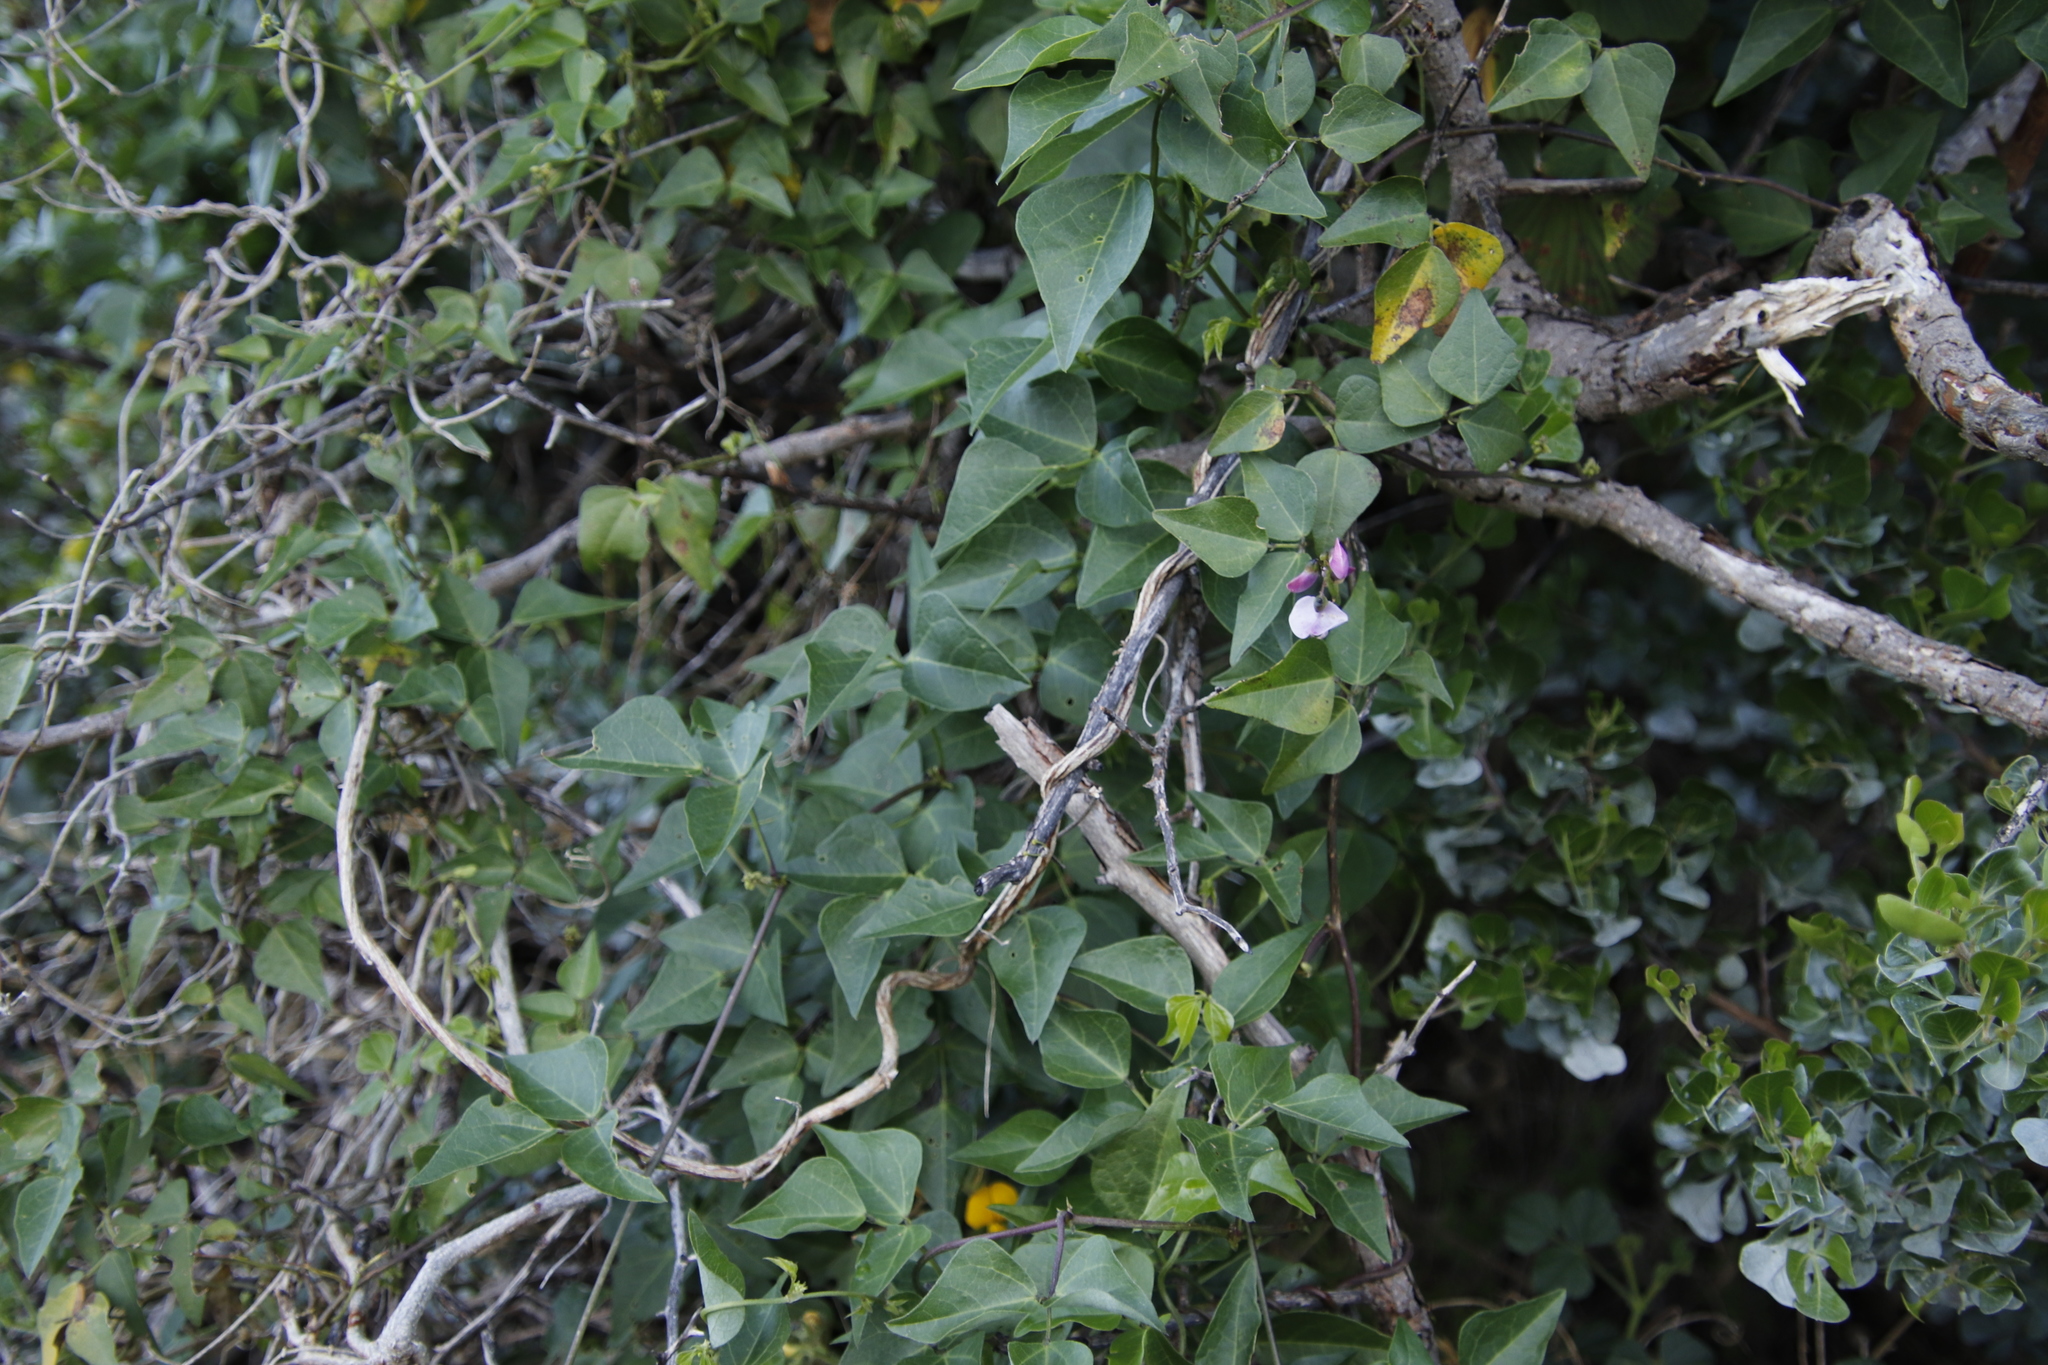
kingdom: Plantae
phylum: Tracheophyta
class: Magnoliopsida
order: Fabales
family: Fabaceae
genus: Dipogon
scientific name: Dipogon lignosus
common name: Okie bean
